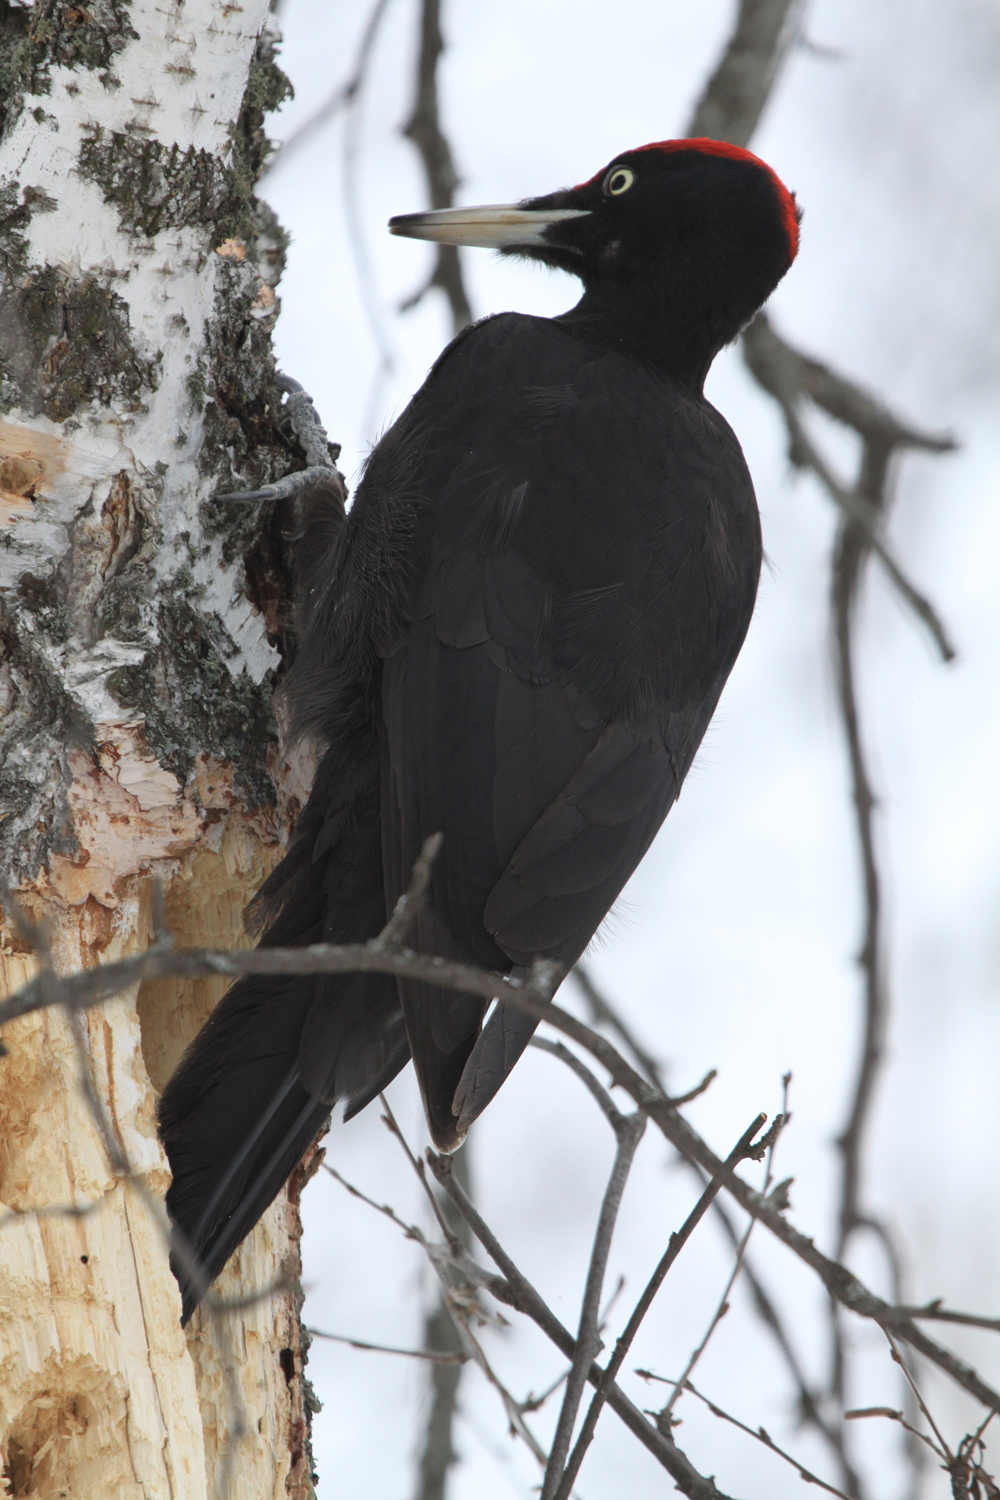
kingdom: Animalia
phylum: Chordata
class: Aves
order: Piciformes
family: Picidae
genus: Dryocopus
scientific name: Dryocopus martius
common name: Black woodpecker
